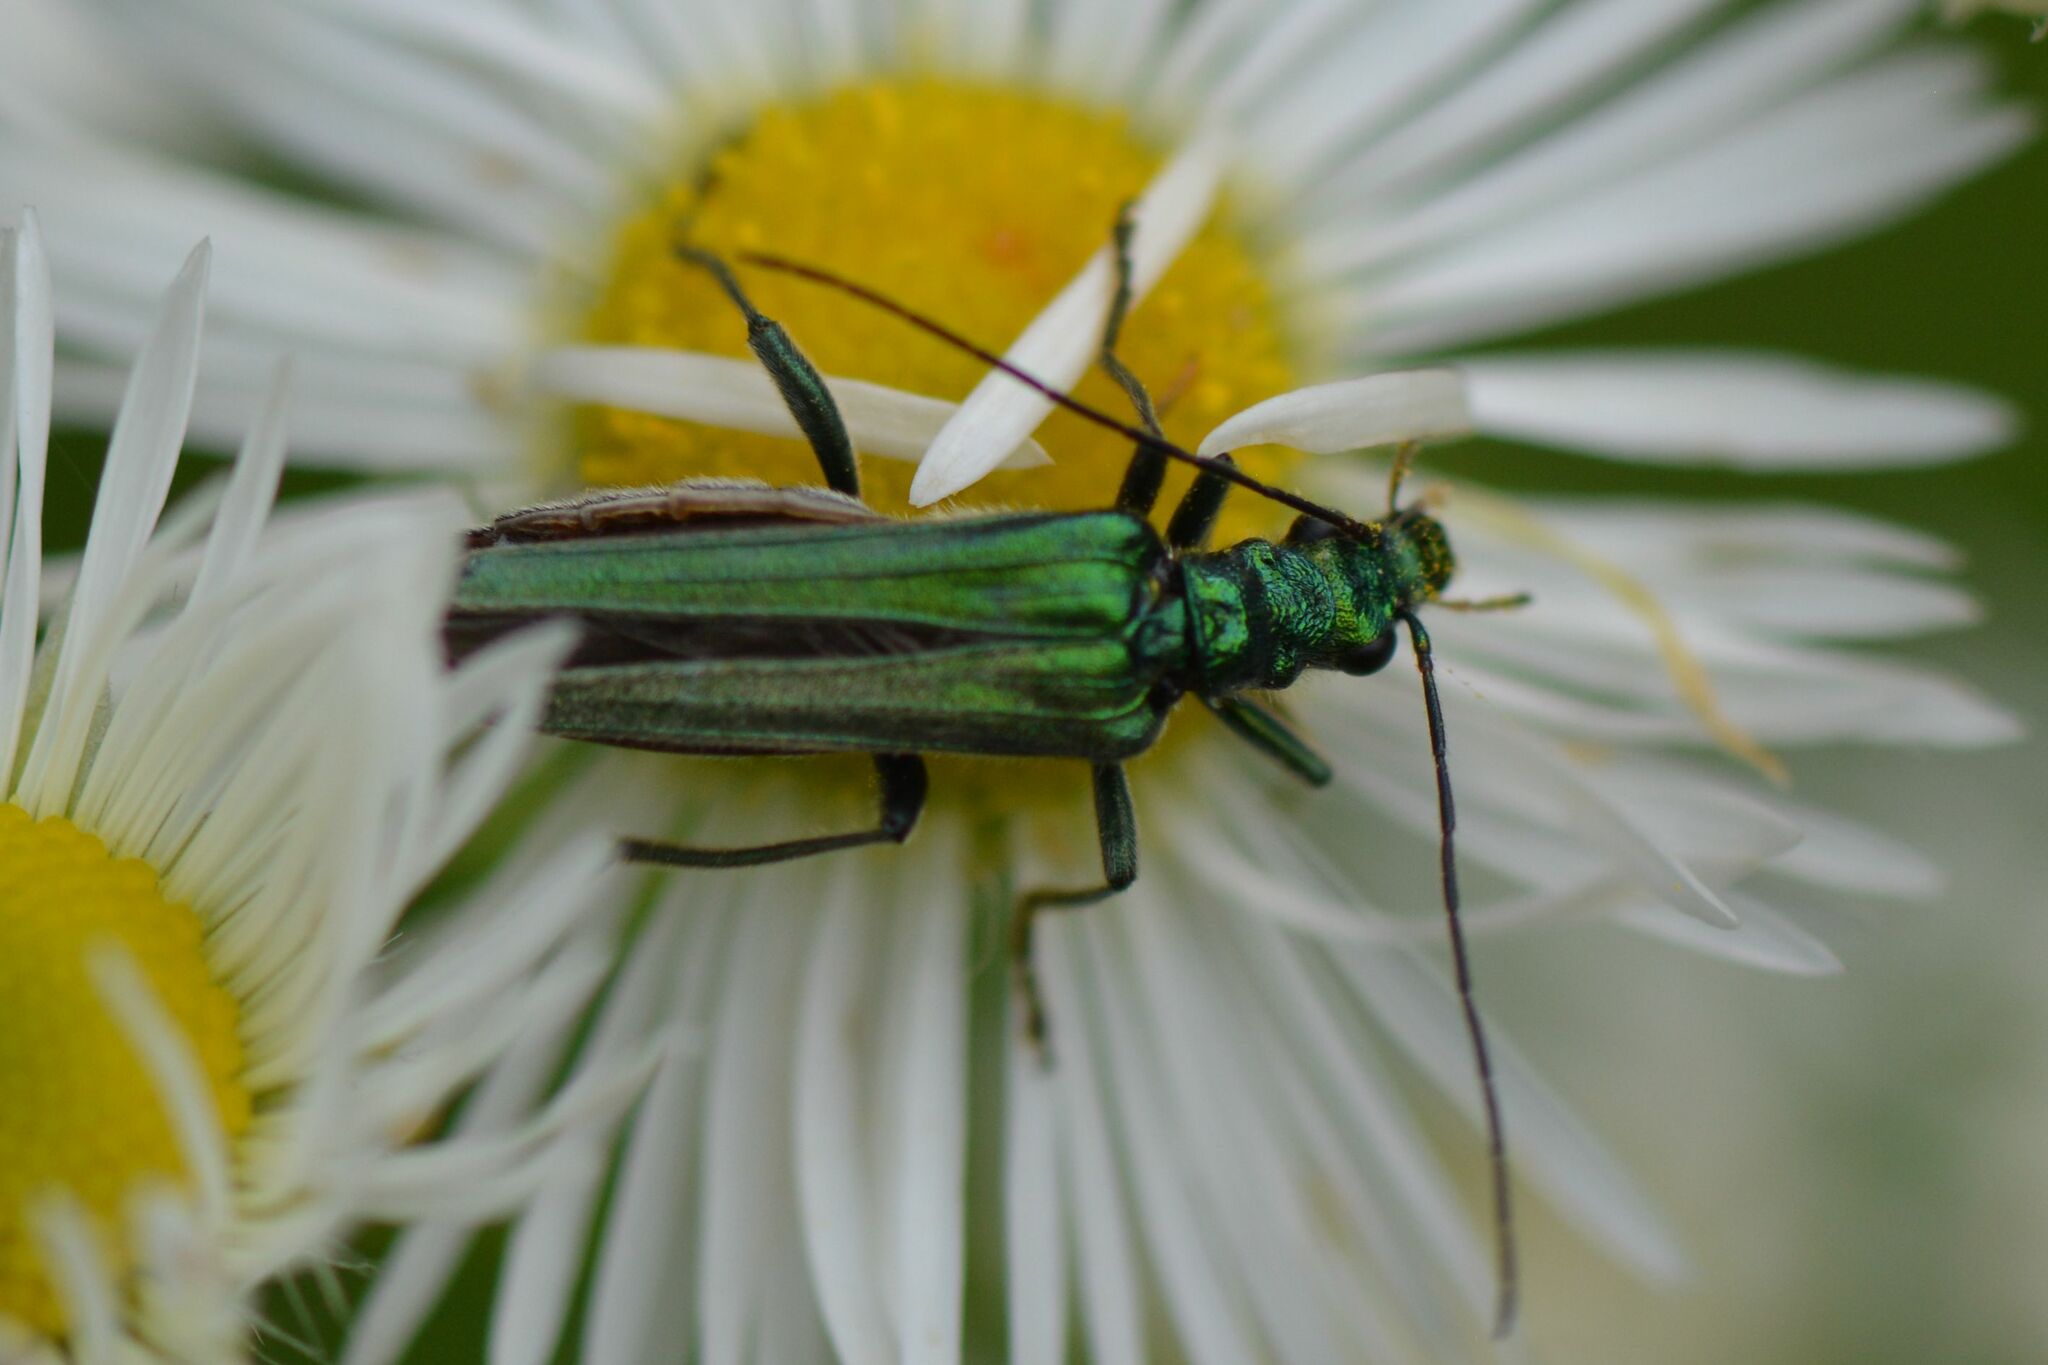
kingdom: Animalia
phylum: Arthropoda
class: Insecta
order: Coleoptera
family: Oedemeridae
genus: Oedemera
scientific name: Oedemera nobilis
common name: Swollen-thighed beetle
